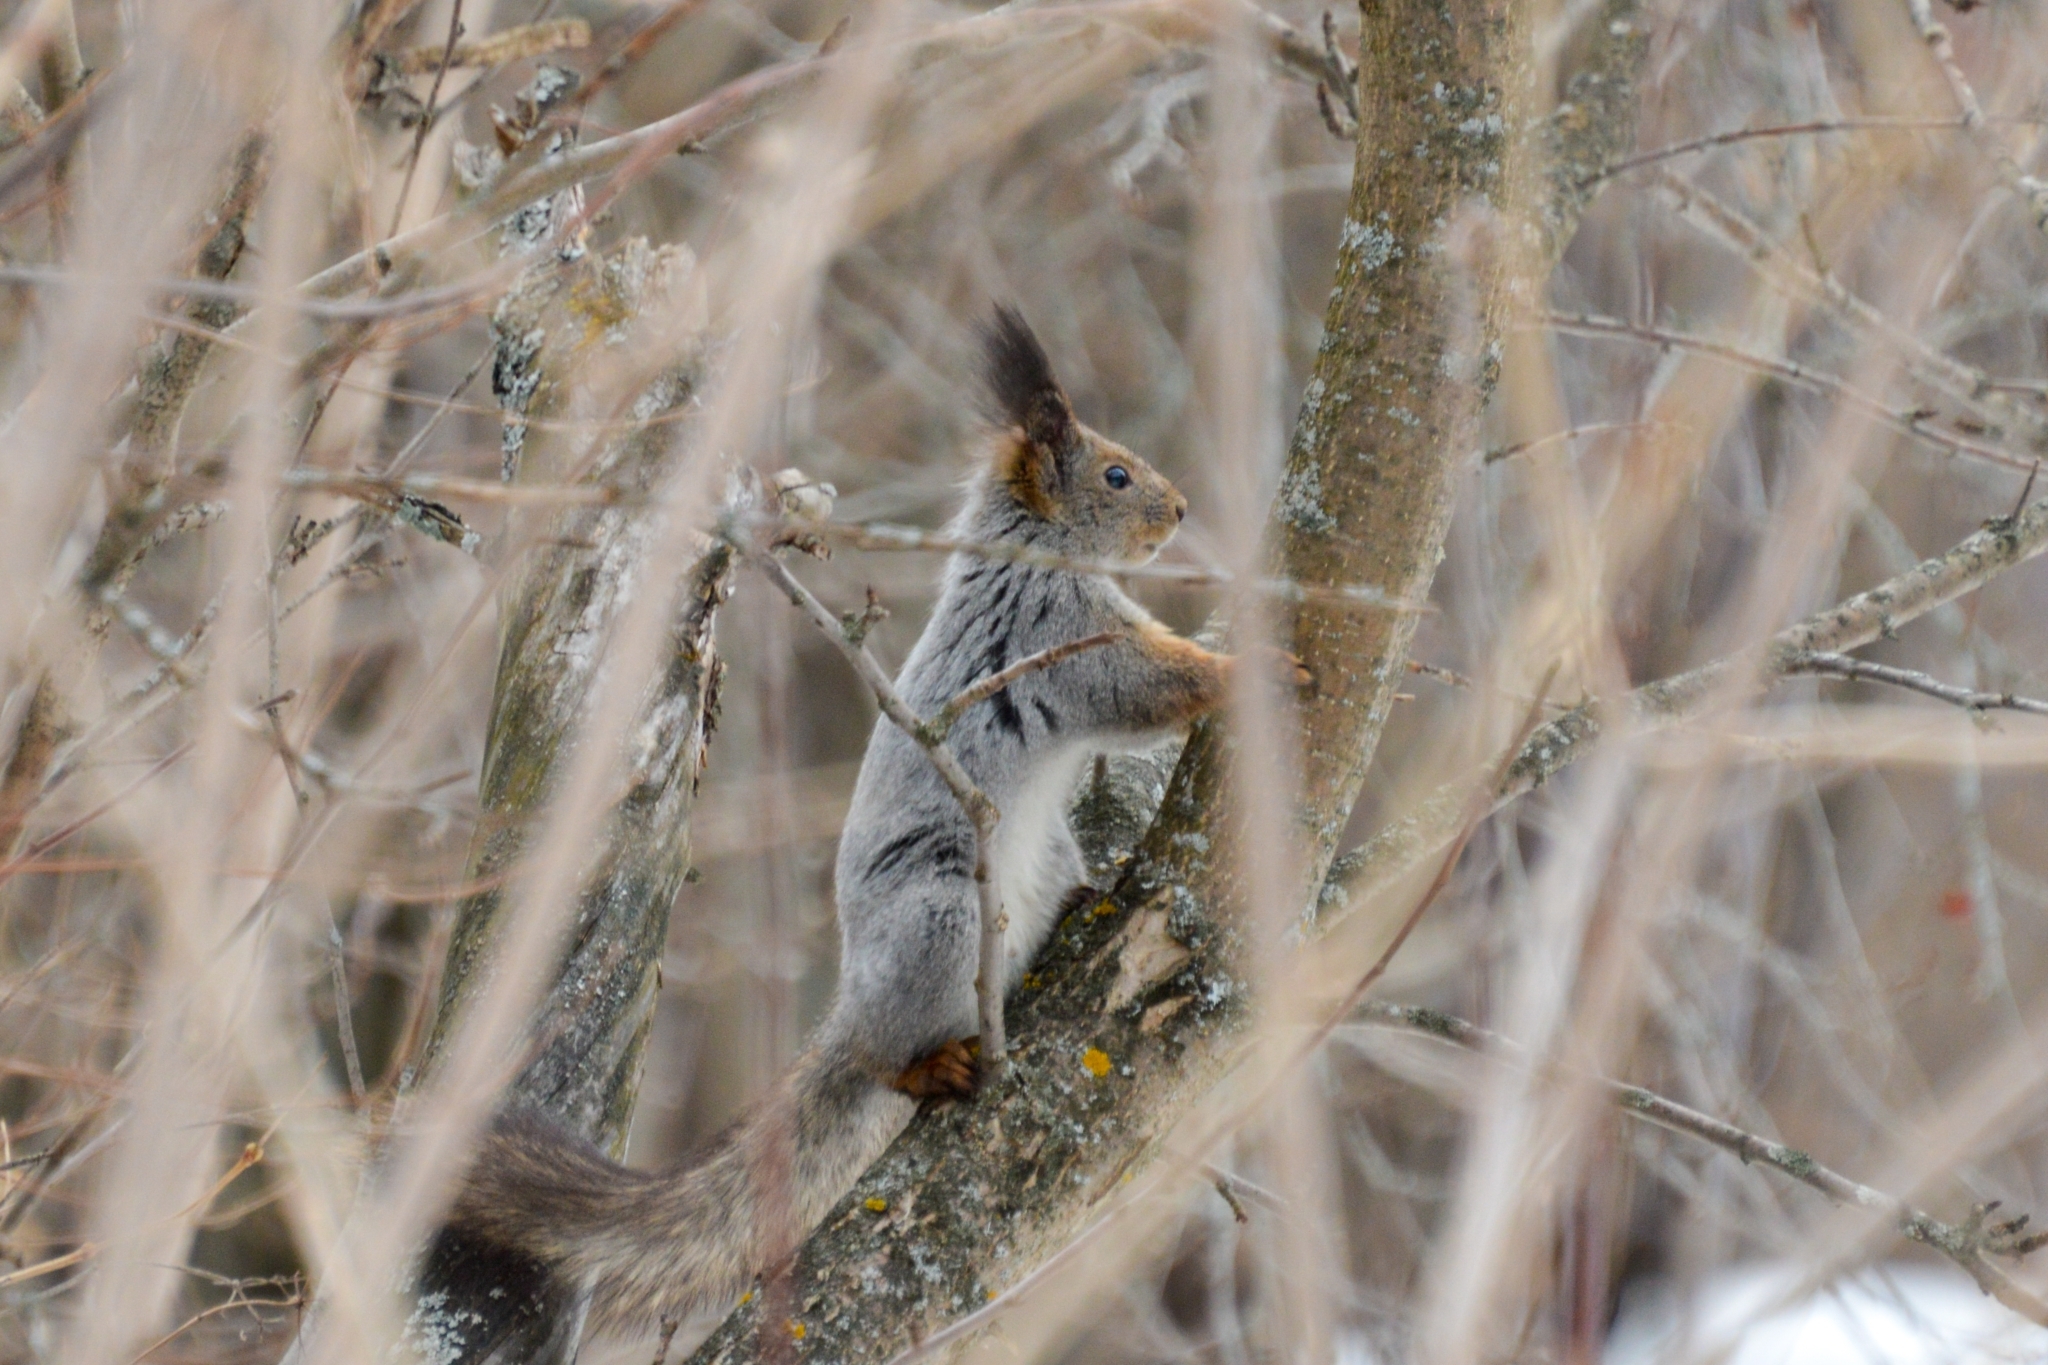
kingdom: Animalia
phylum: Chordata
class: Mammalia
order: Rodentia
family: Sciuridae
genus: Sciurus
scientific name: Sciurus vulgaris
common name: Eurasian red squirrel
